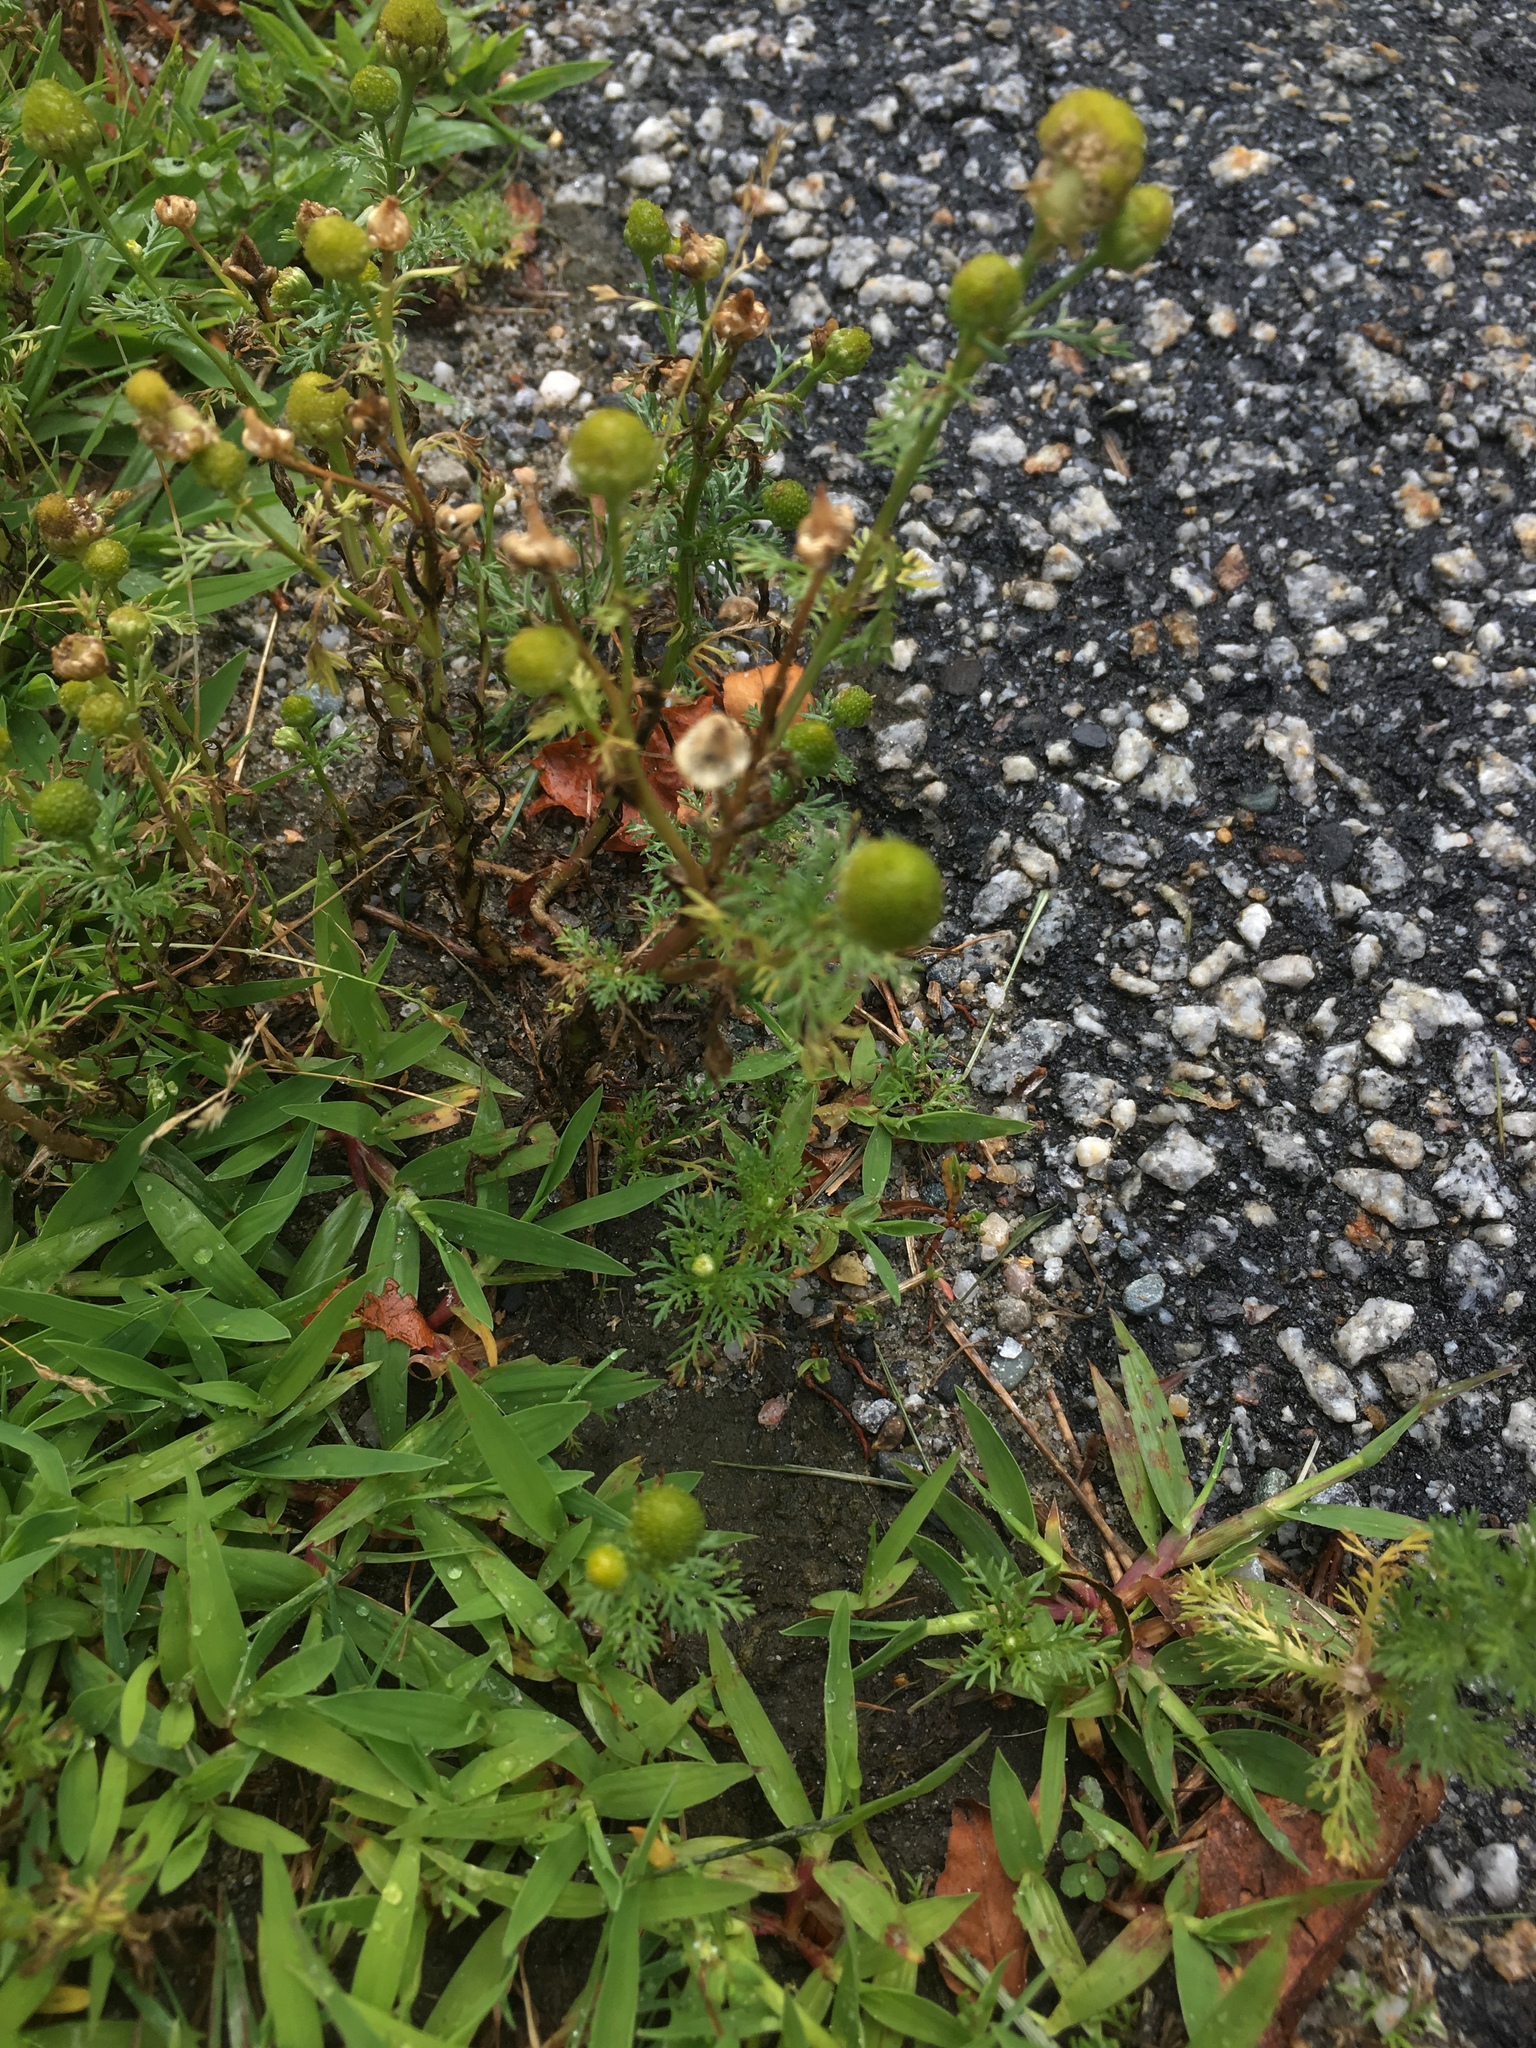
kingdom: Plantae
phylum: Tracheophyta
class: Magnoliopsida
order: Asterales
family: Asteraceae
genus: Matricaria
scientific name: Matricaria discoidea
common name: Disc mayweed
